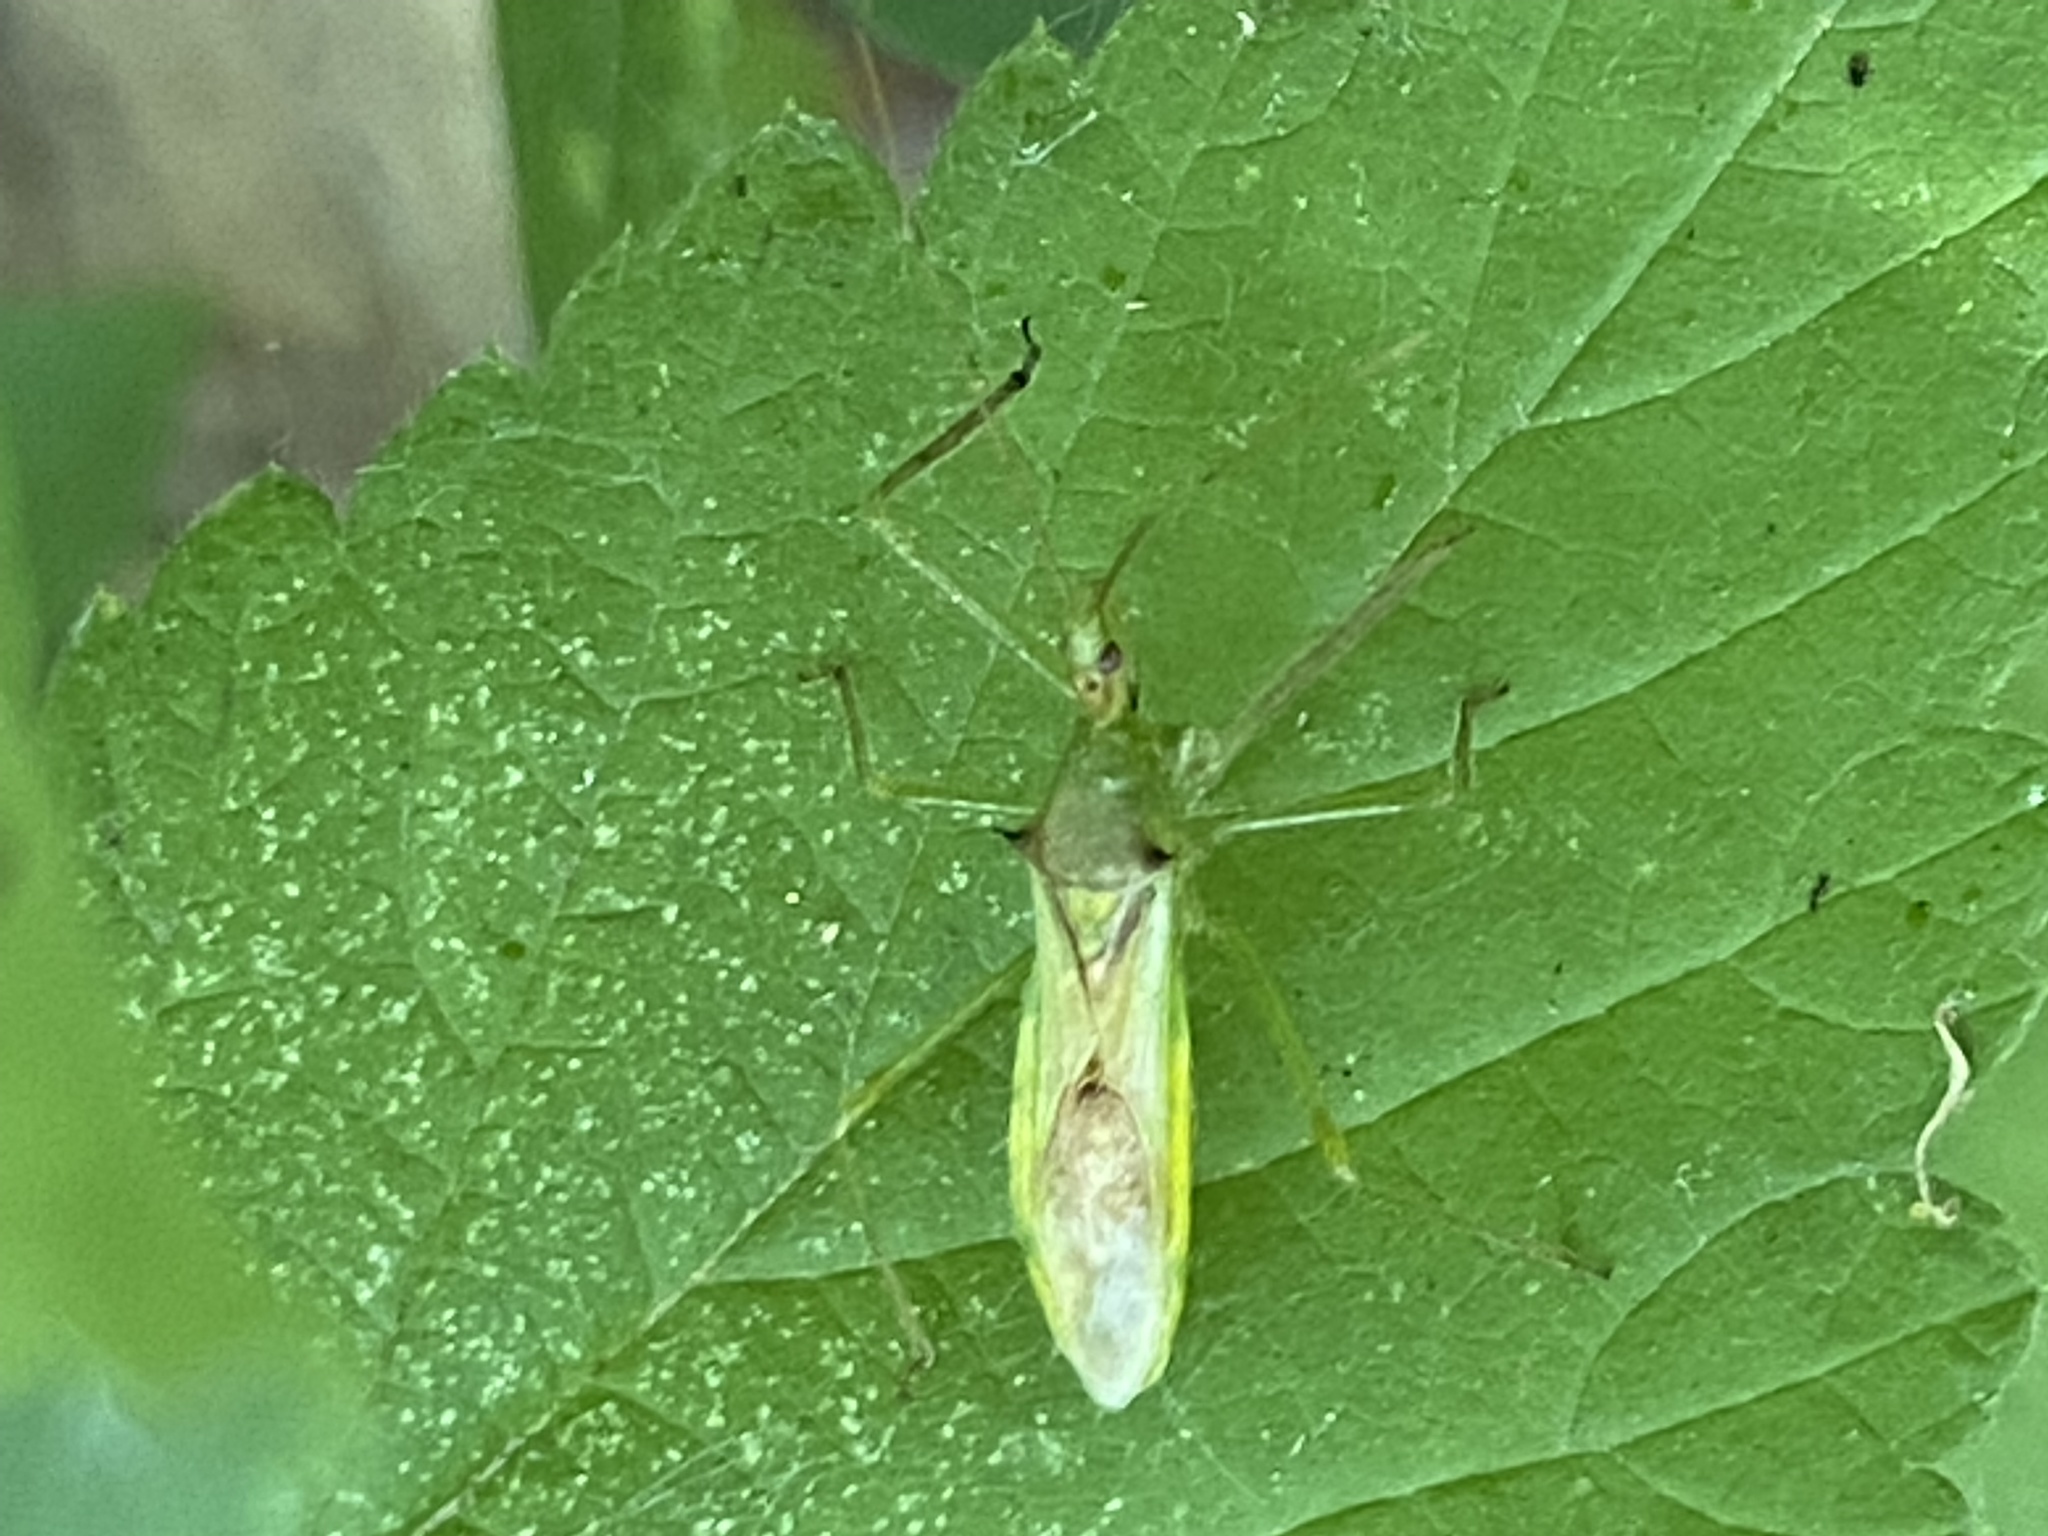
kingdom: Animalia
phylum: Arthropoda
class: Insecta
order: Hemiptera
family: Reduviidae
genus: Zelus
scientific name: Zelus luridus
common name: Pale green assassin bug
